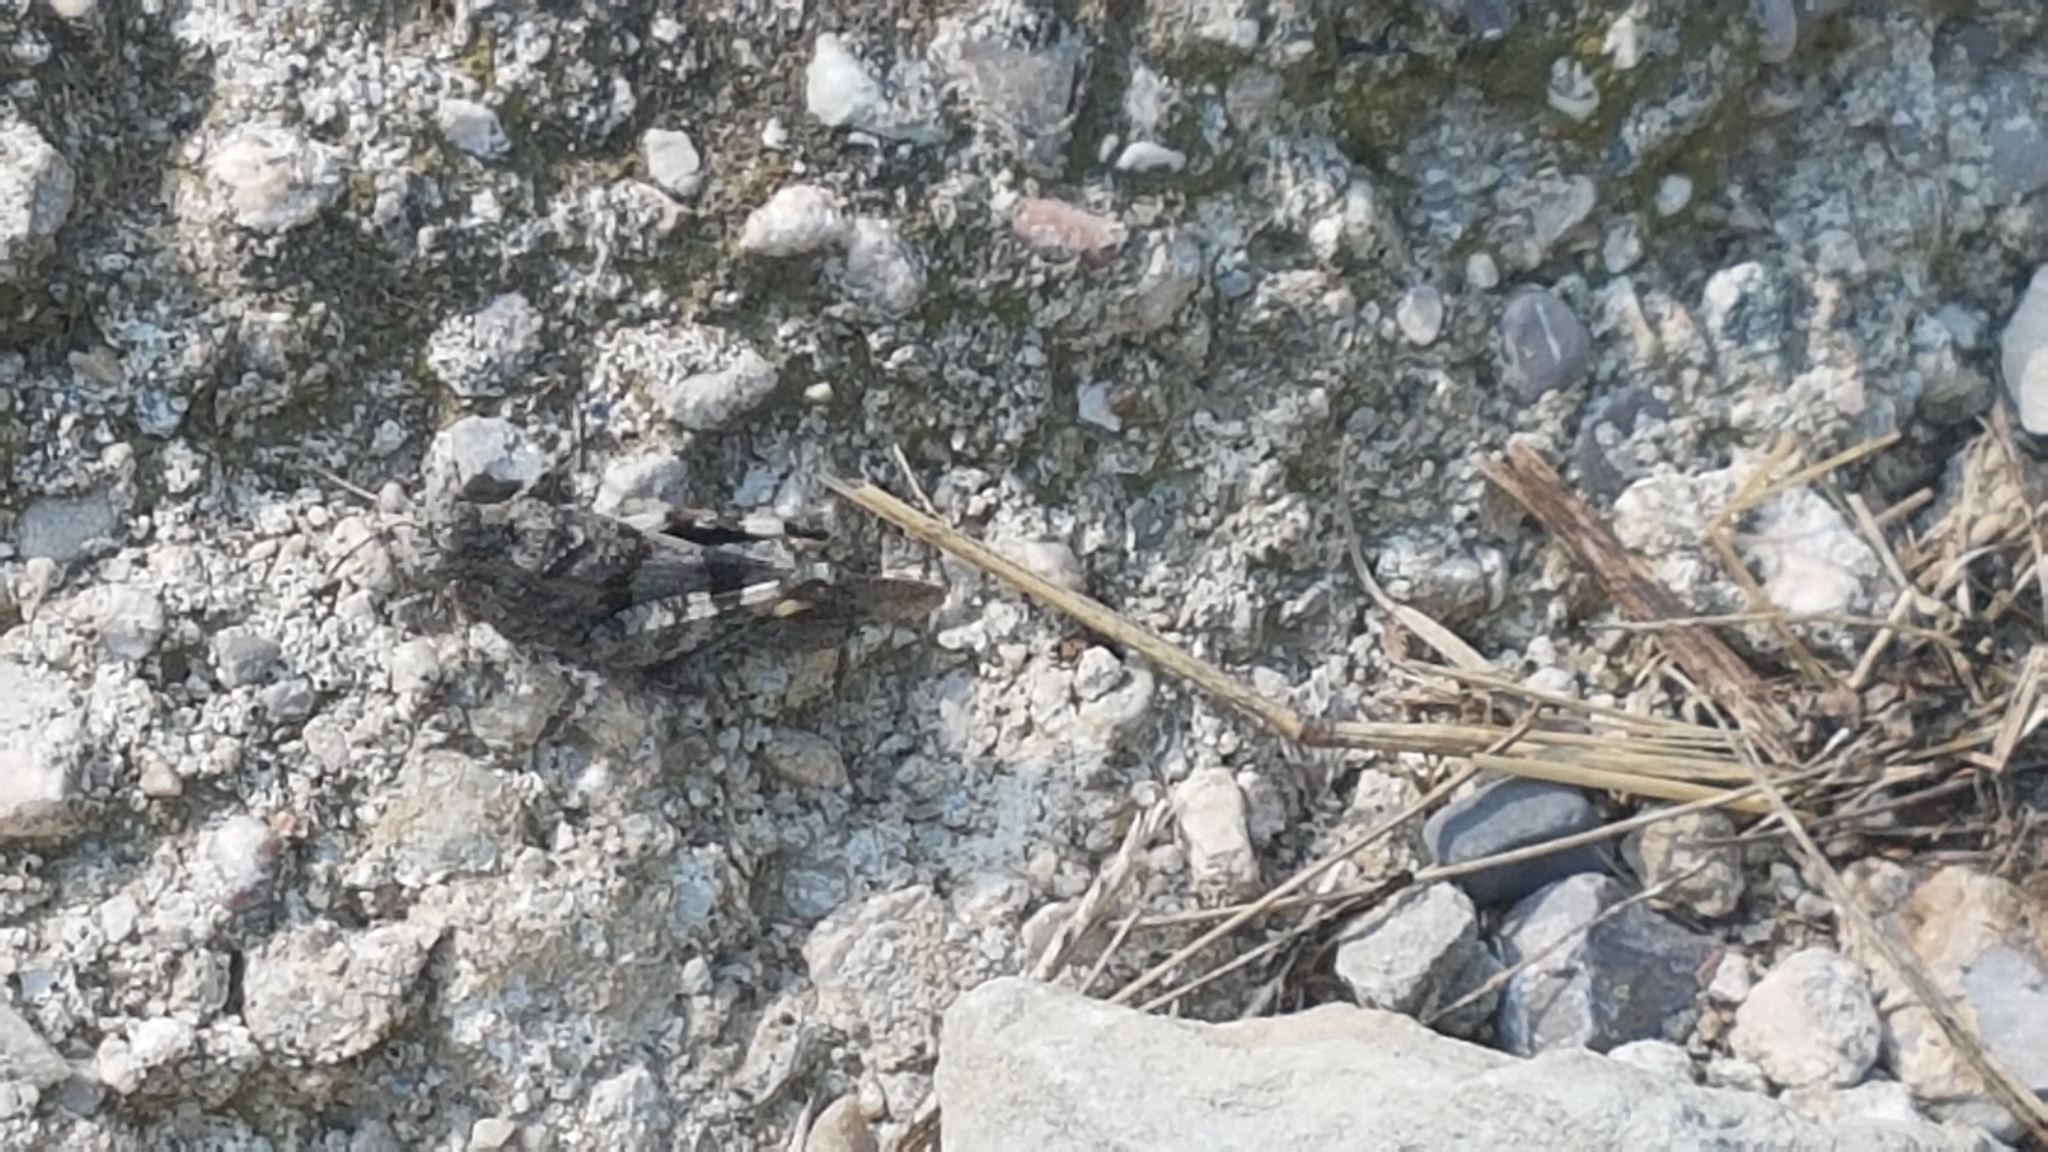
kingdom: Animalia
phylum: Arthropoda
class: Insecta
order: Orthoptera
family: Acrididae
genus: Oedipoda
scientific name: Oedipoda caerulescens
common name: Blue-winged grasshopper
